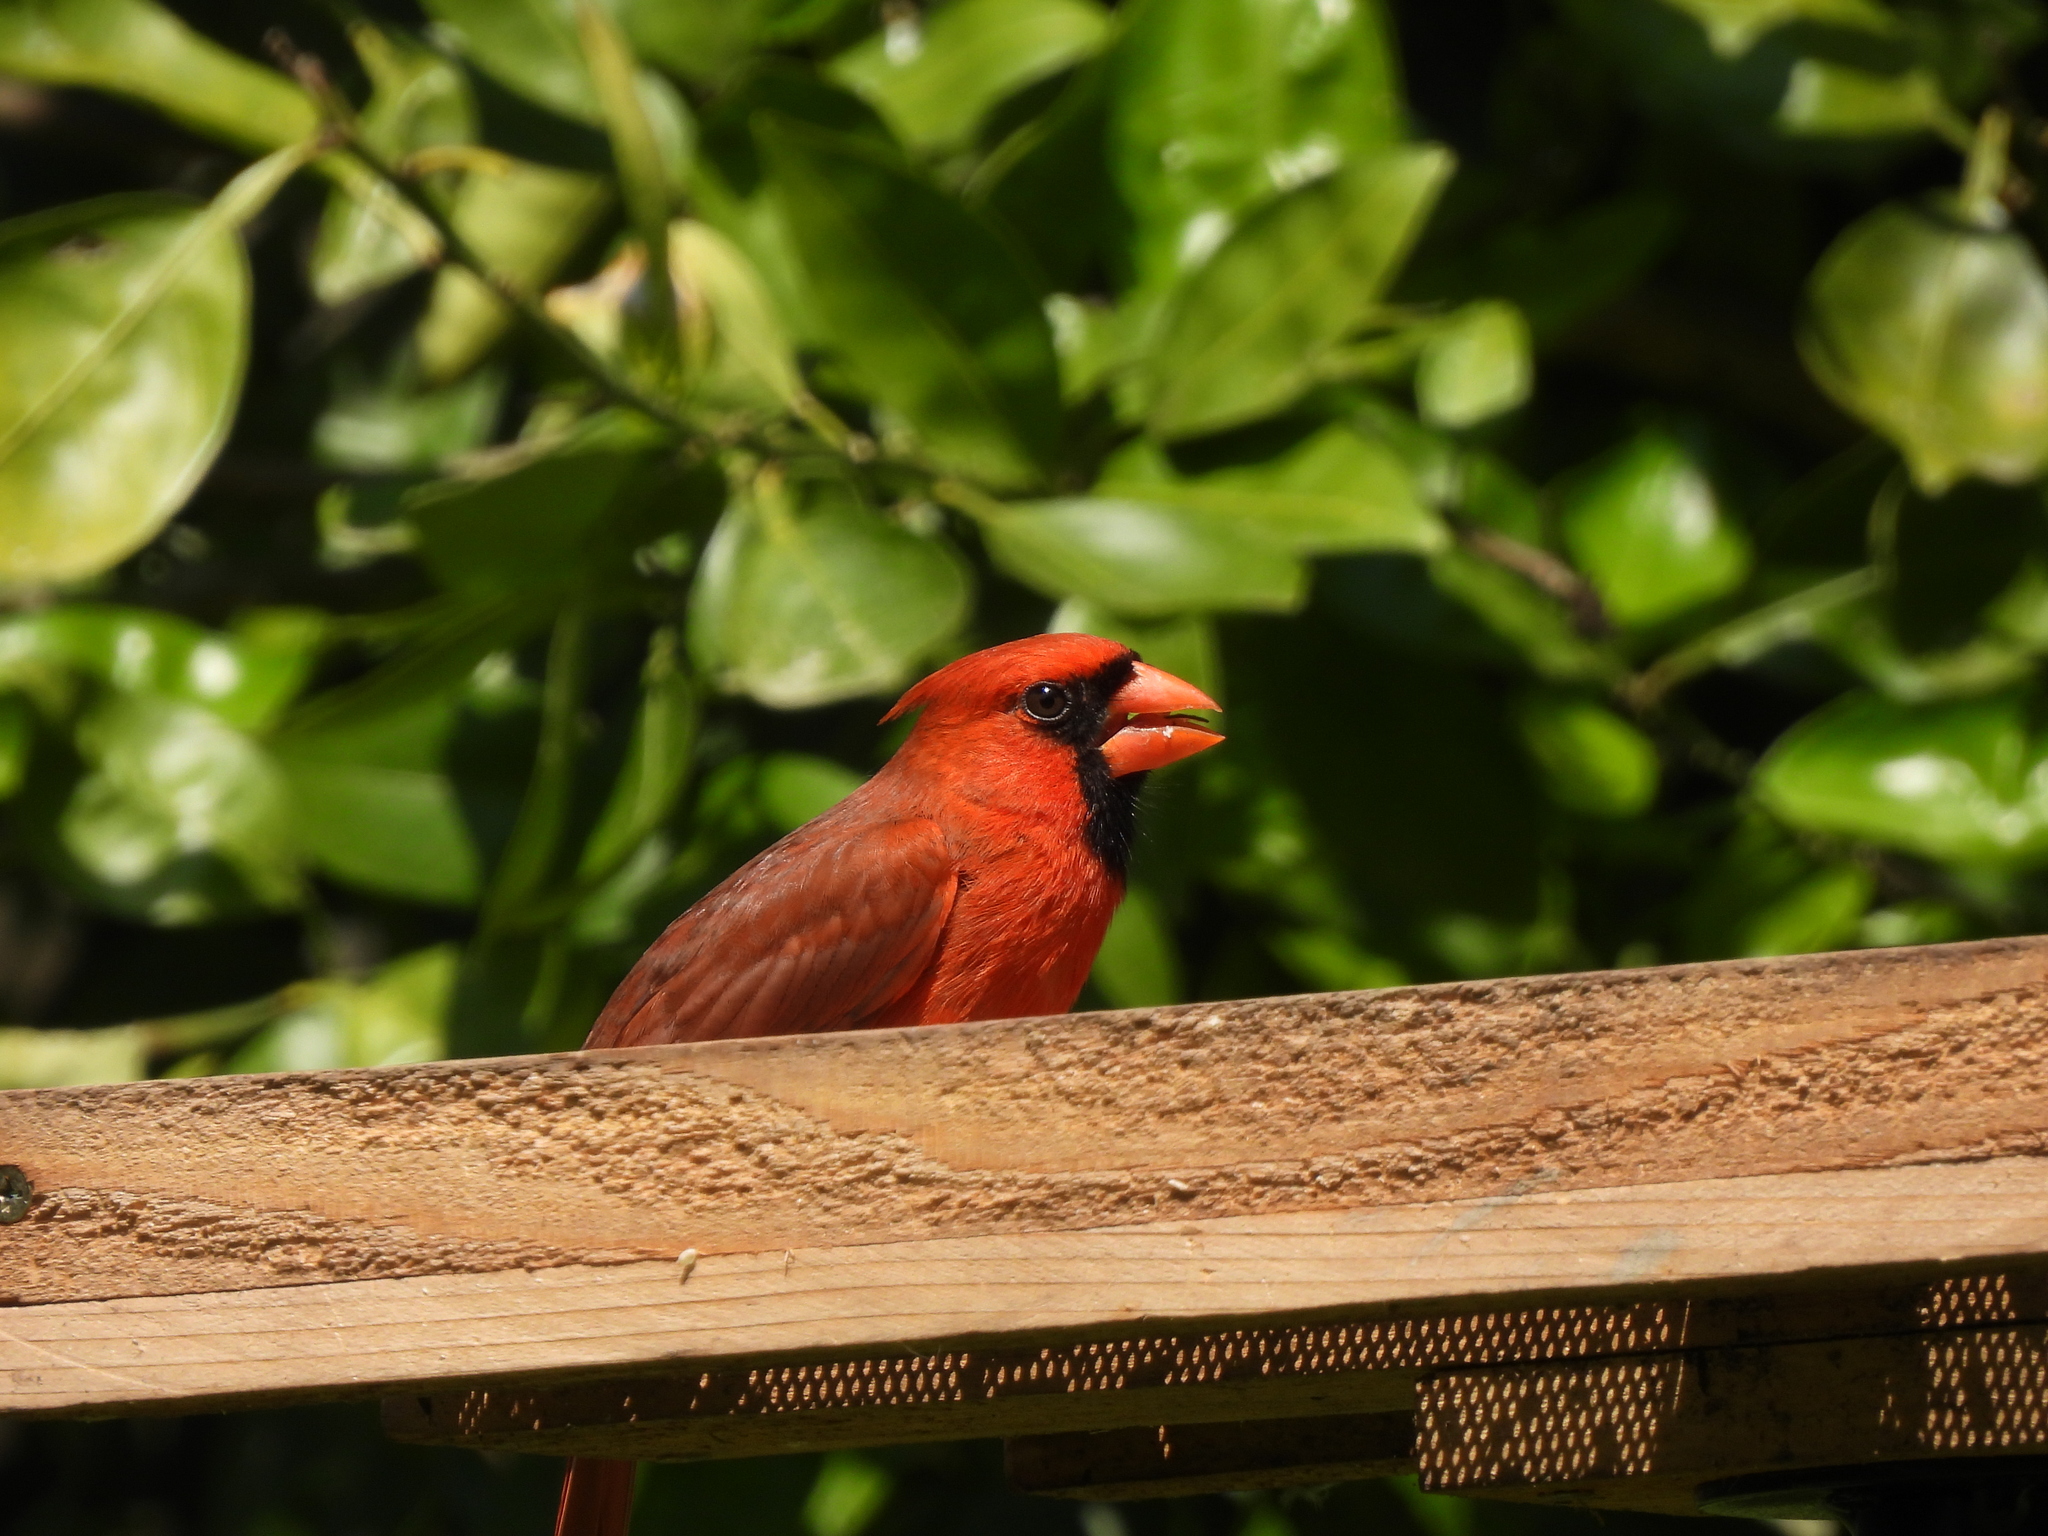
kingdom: Animalia
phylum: Chordata
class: Aves
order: Passeriformes
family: Cardinalidae
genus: Cardinalis
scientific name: Cardinalis cardinalis
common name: Northern cardinal
